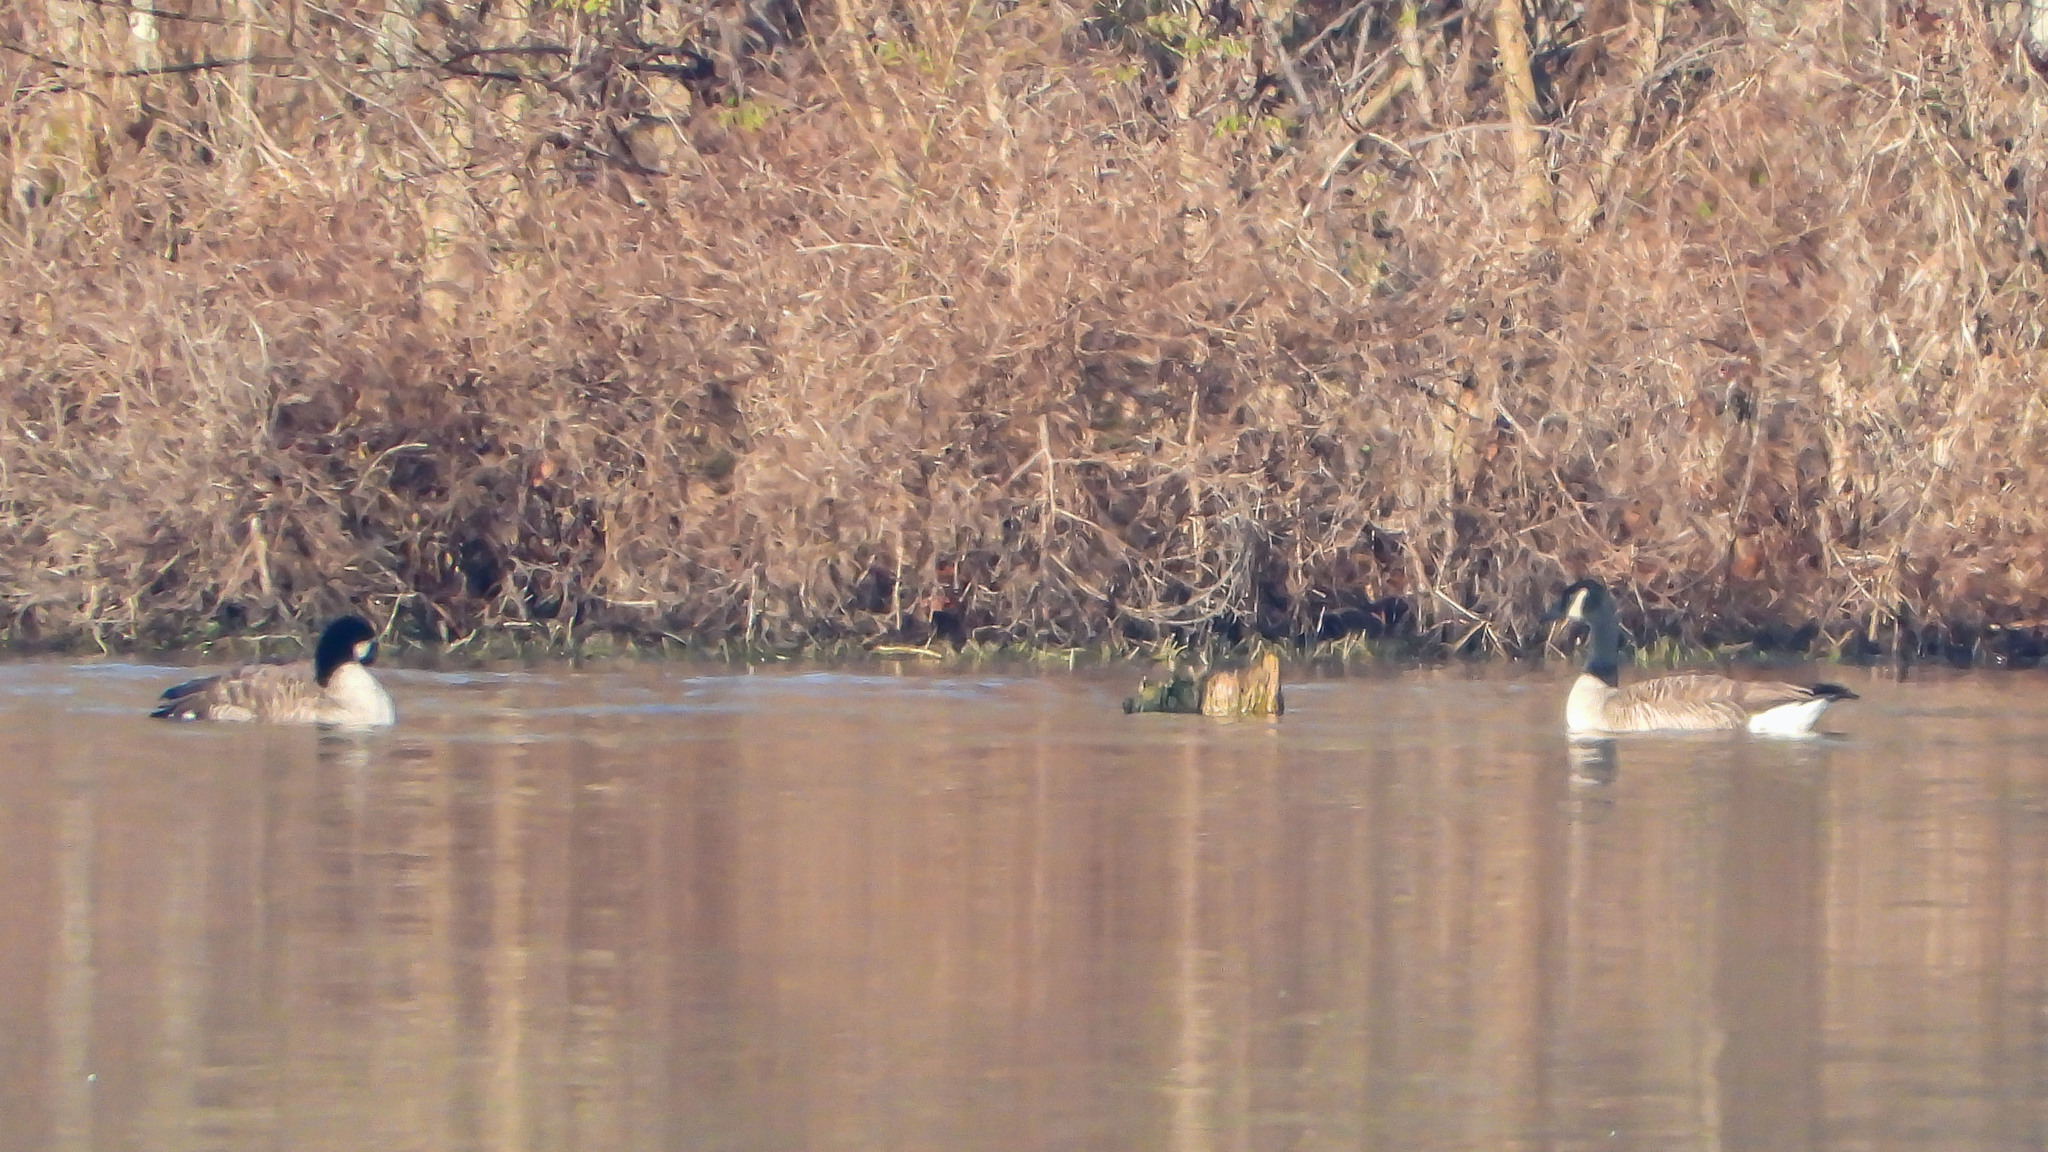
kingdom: Animalia
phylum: Chordata
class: Aves
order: Anseriformes
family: Anatidae
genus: Branta
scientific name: Branta canadensis
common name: Canada goose
